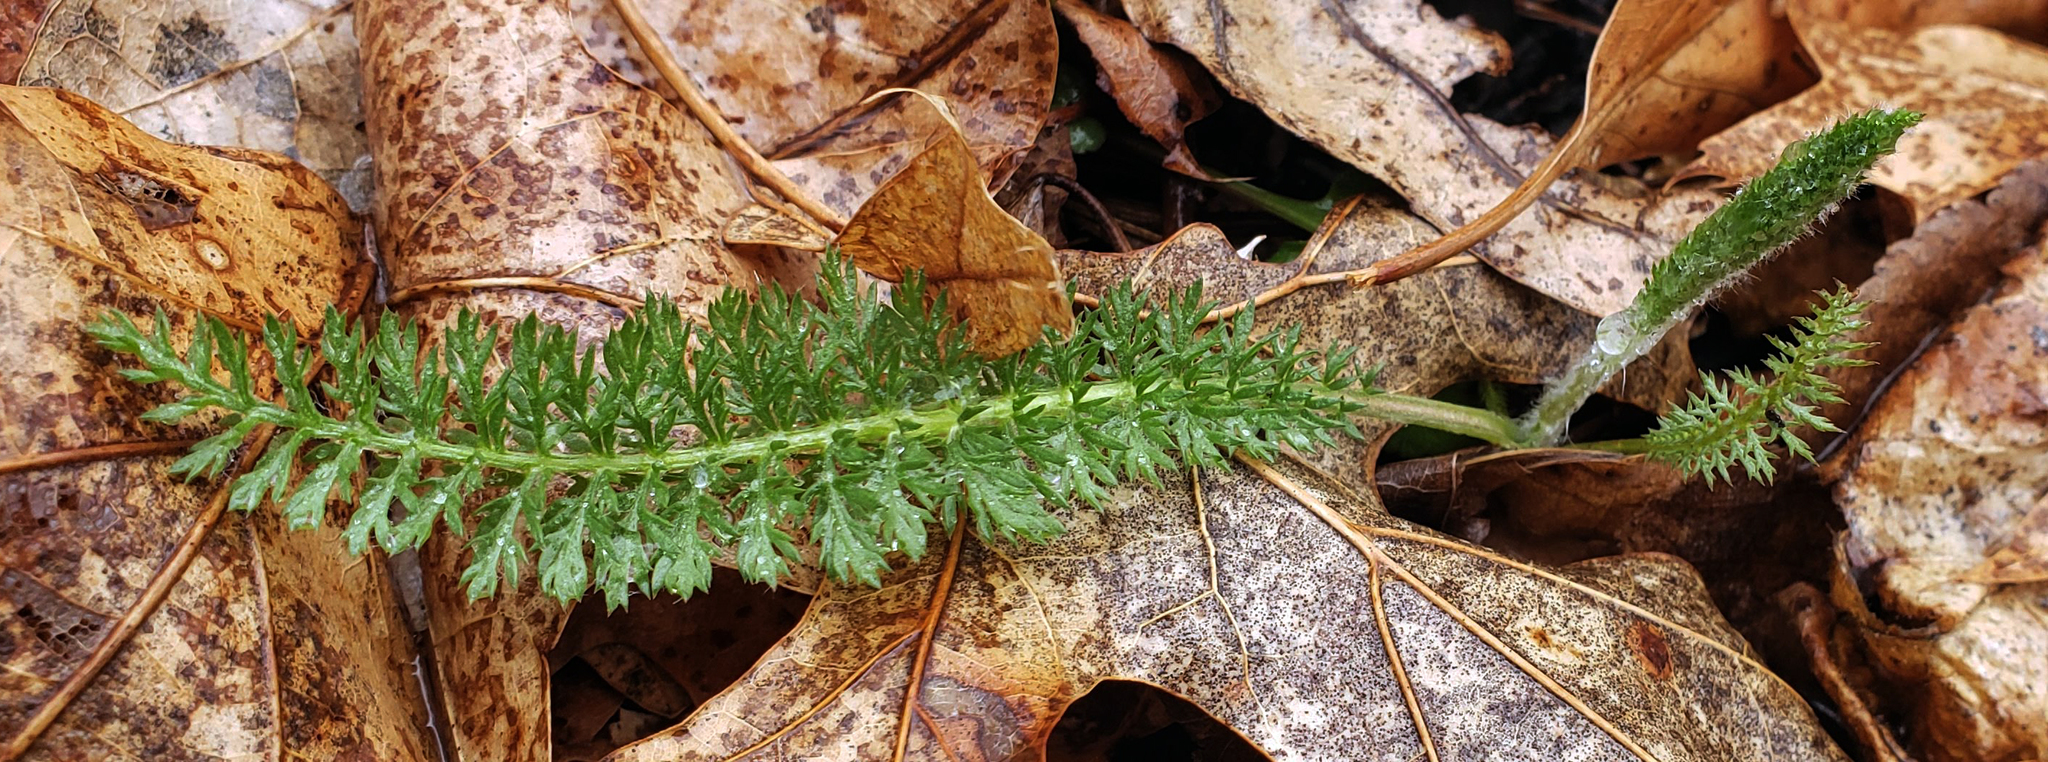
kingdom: Plantae
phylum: Tracheophyta
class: Magnoliopsida
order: Asterales
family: Asteraceae
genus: Achillea
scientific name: Achillea millefolium
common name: Yarrow
